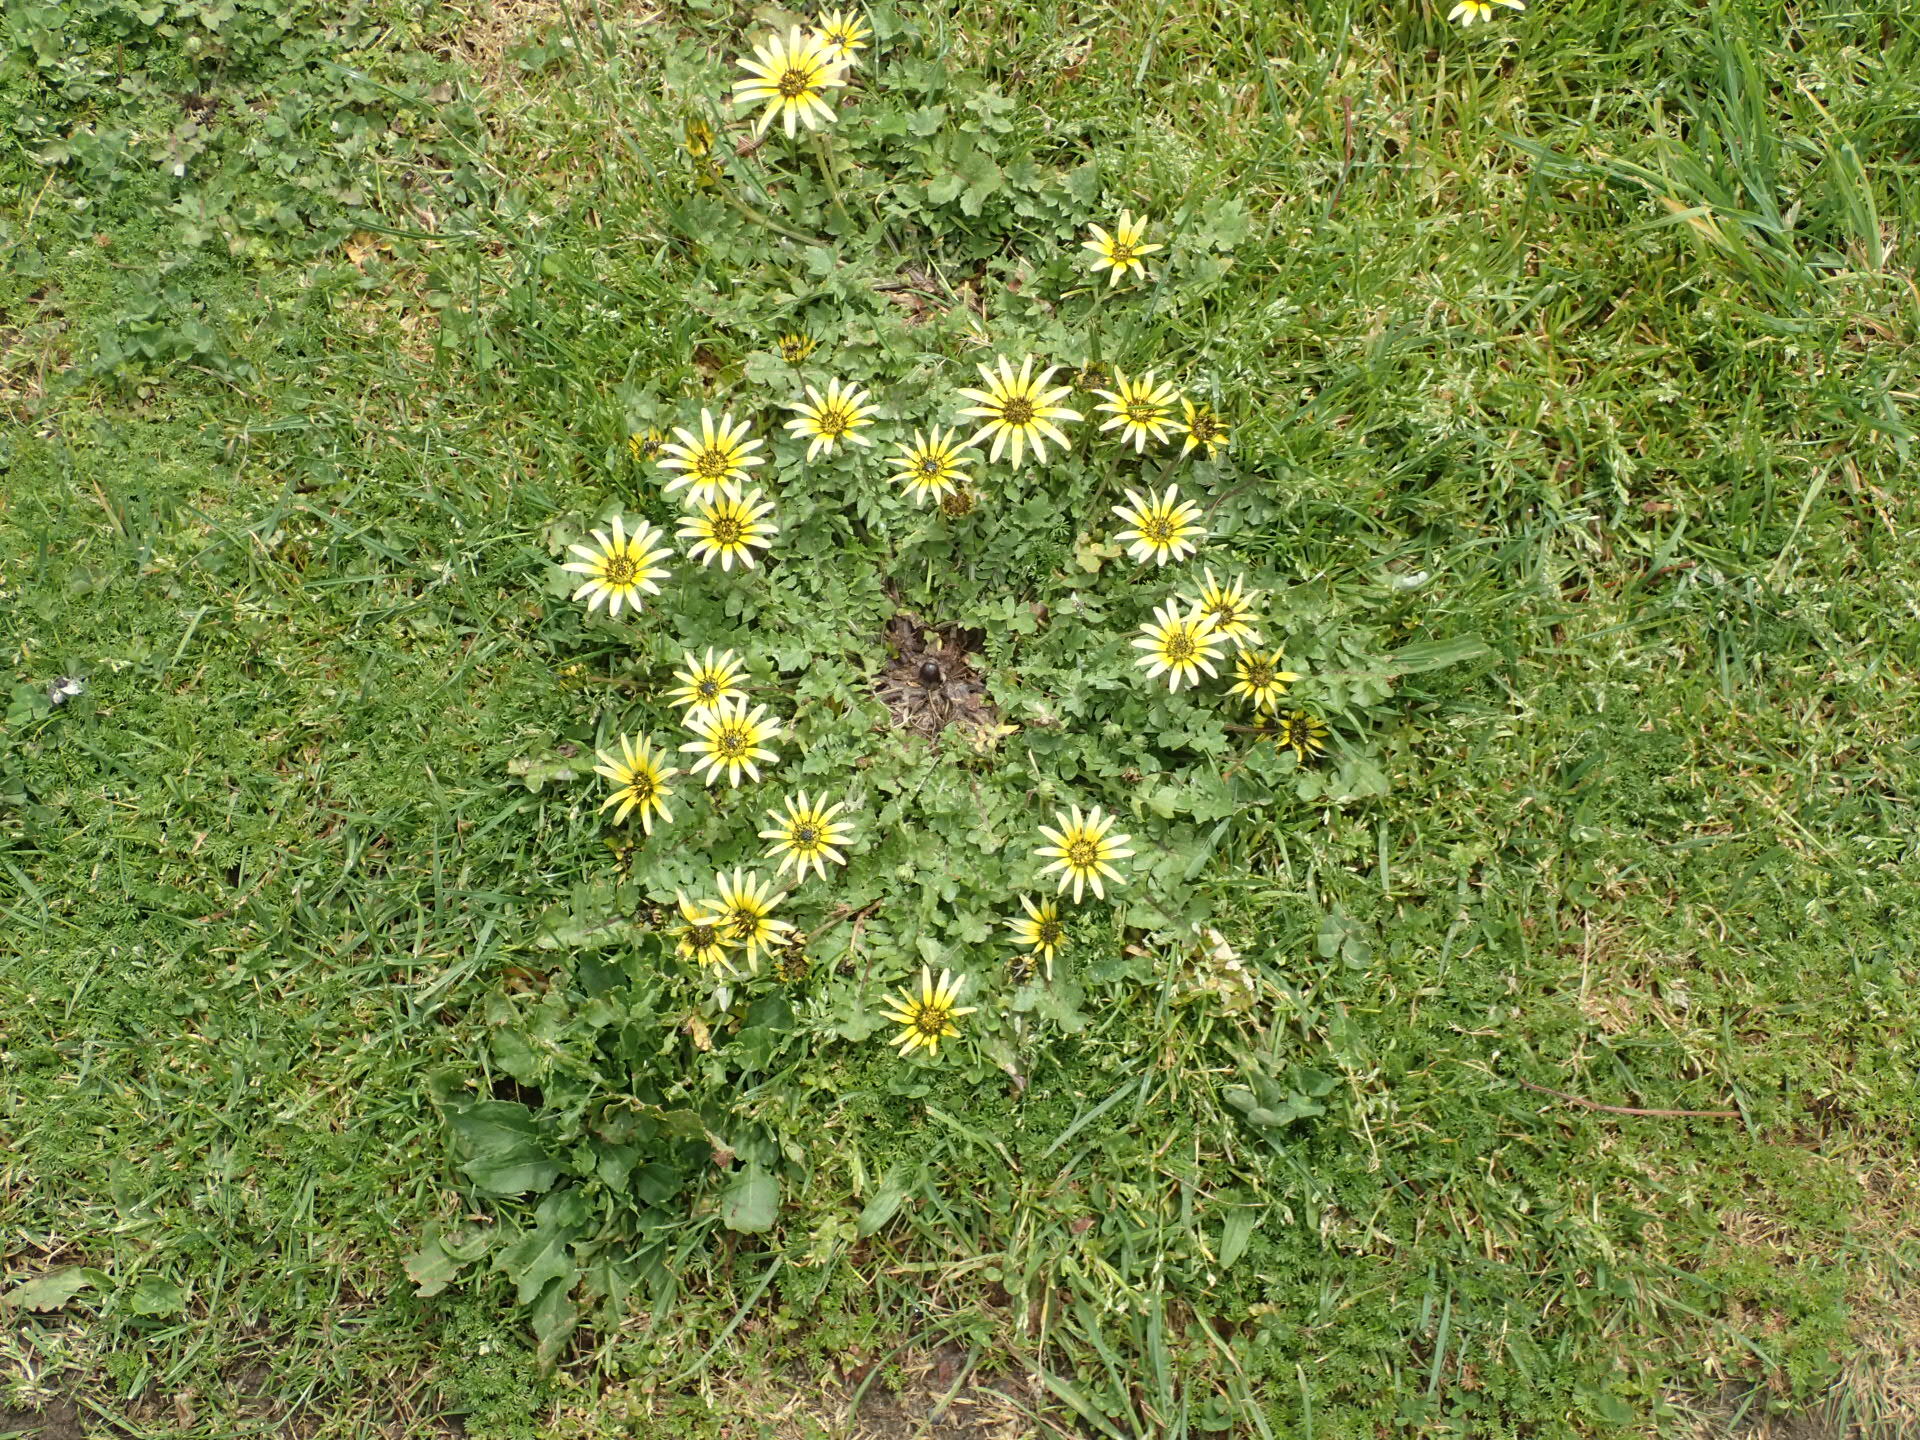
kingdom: Plantae
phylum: Tracheophyta
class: Magnoliopsida
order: Asterales
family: Asteraceae
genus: Arctotheca
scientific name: Arctotheca calendula
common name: Capeweed
